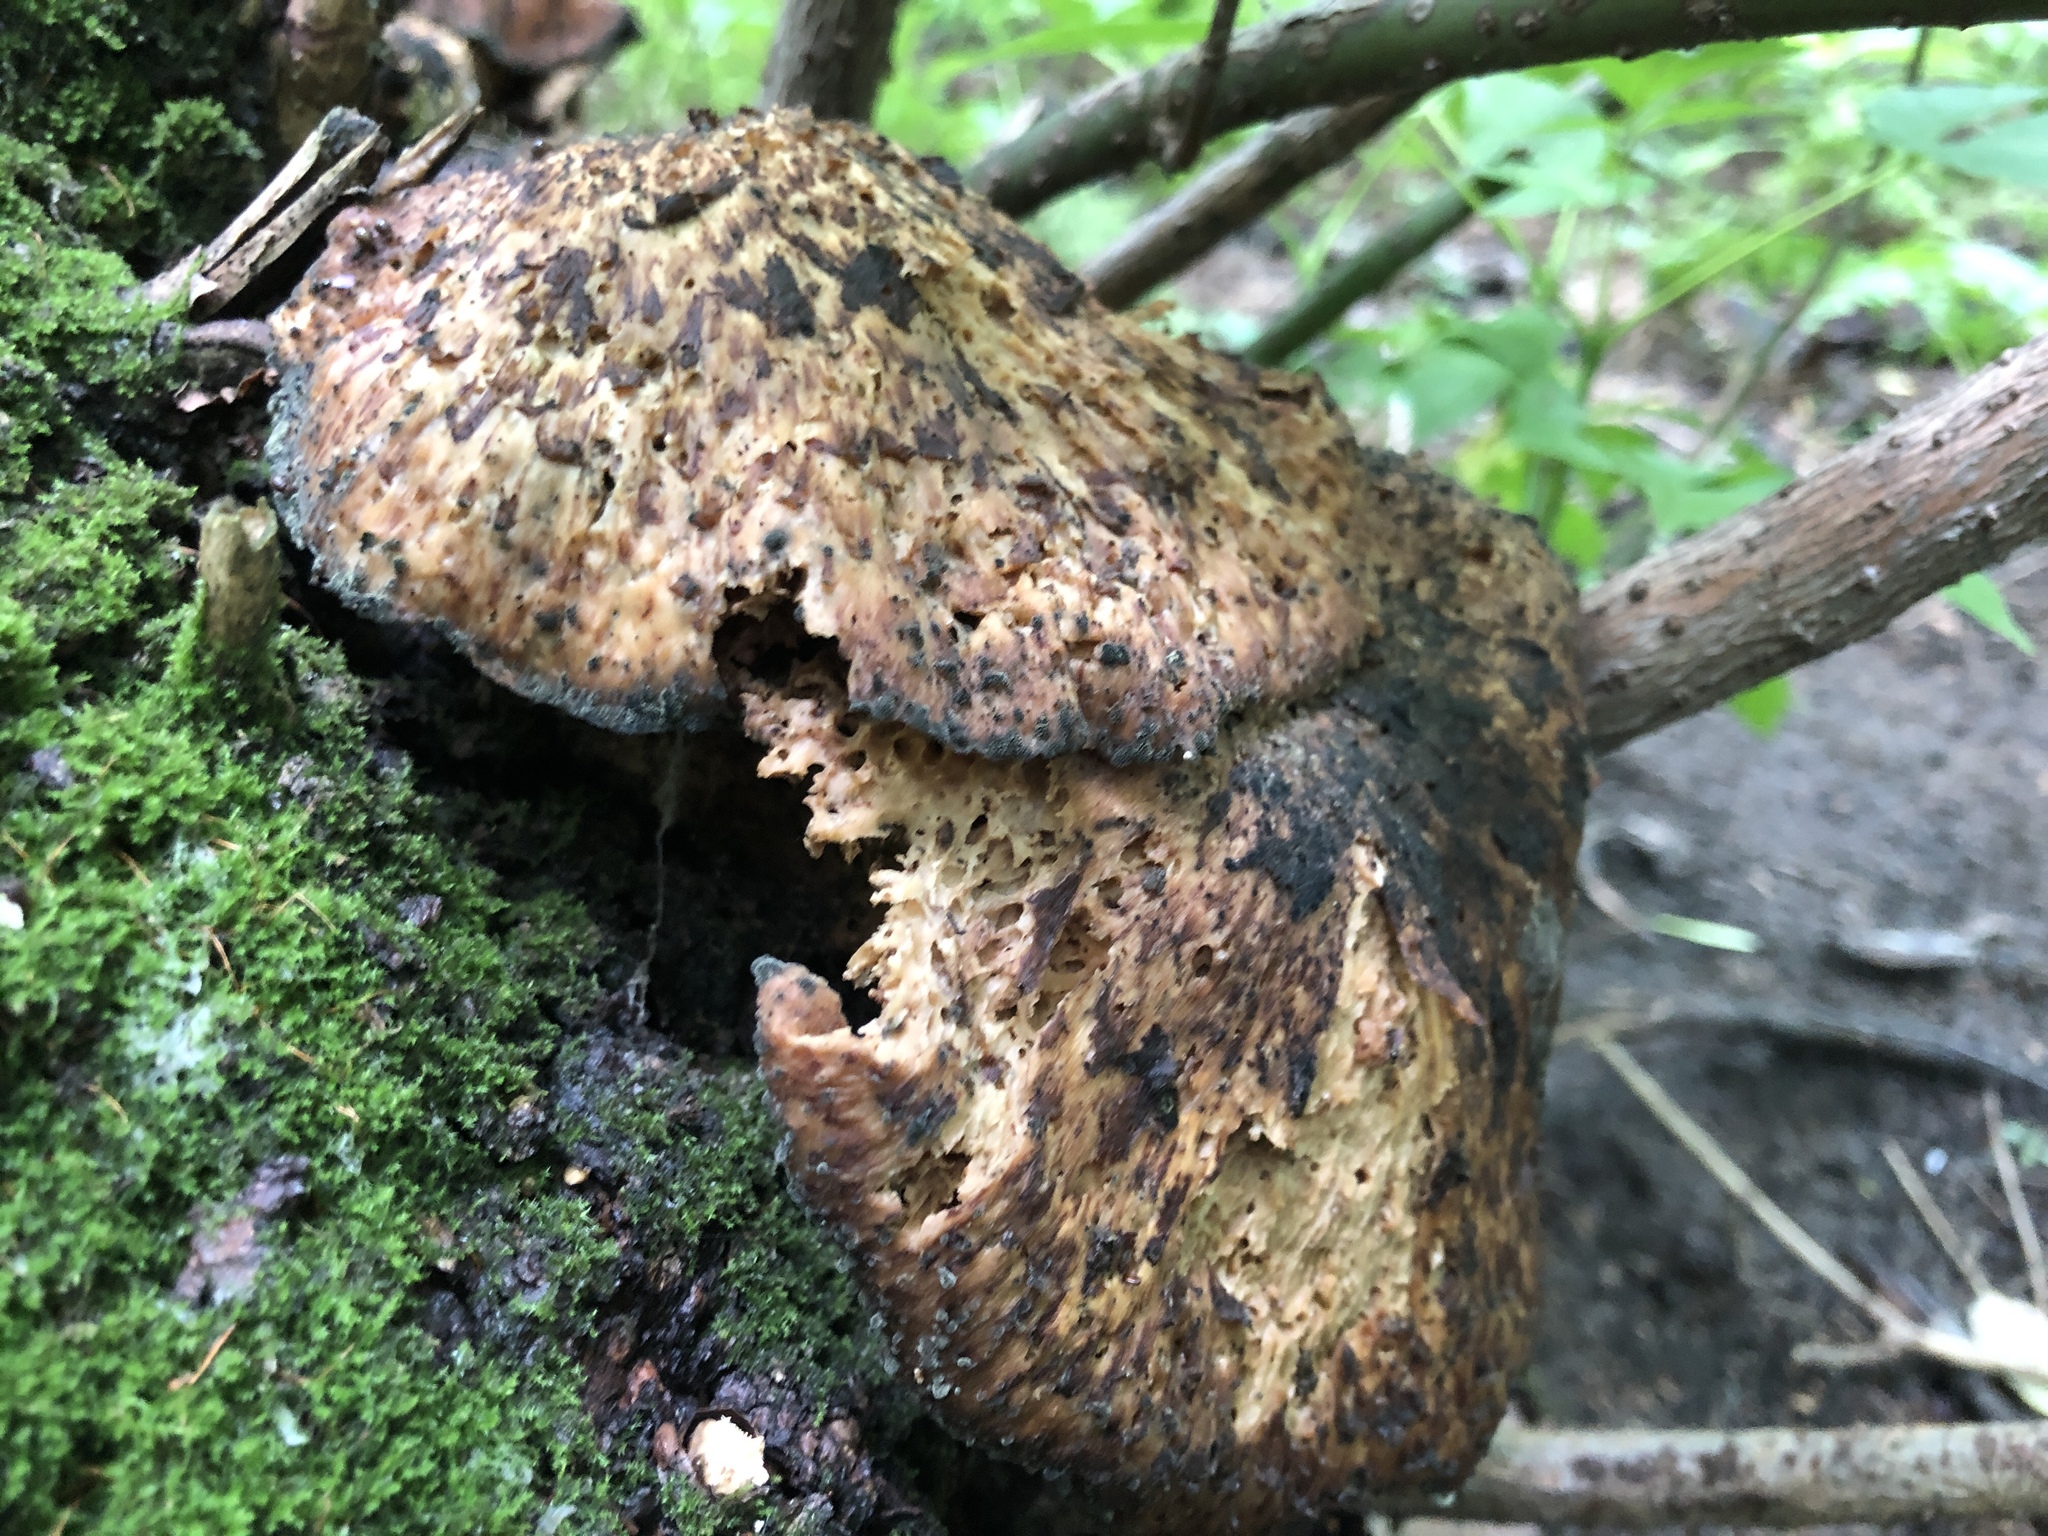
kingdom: Fungi
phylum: Basidiomycota
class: Agaricomycetes
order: Polyporales
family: Polyporaceae
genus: Cerioporus
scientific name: Cerioporus squamosus
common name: Dryad's saddle
